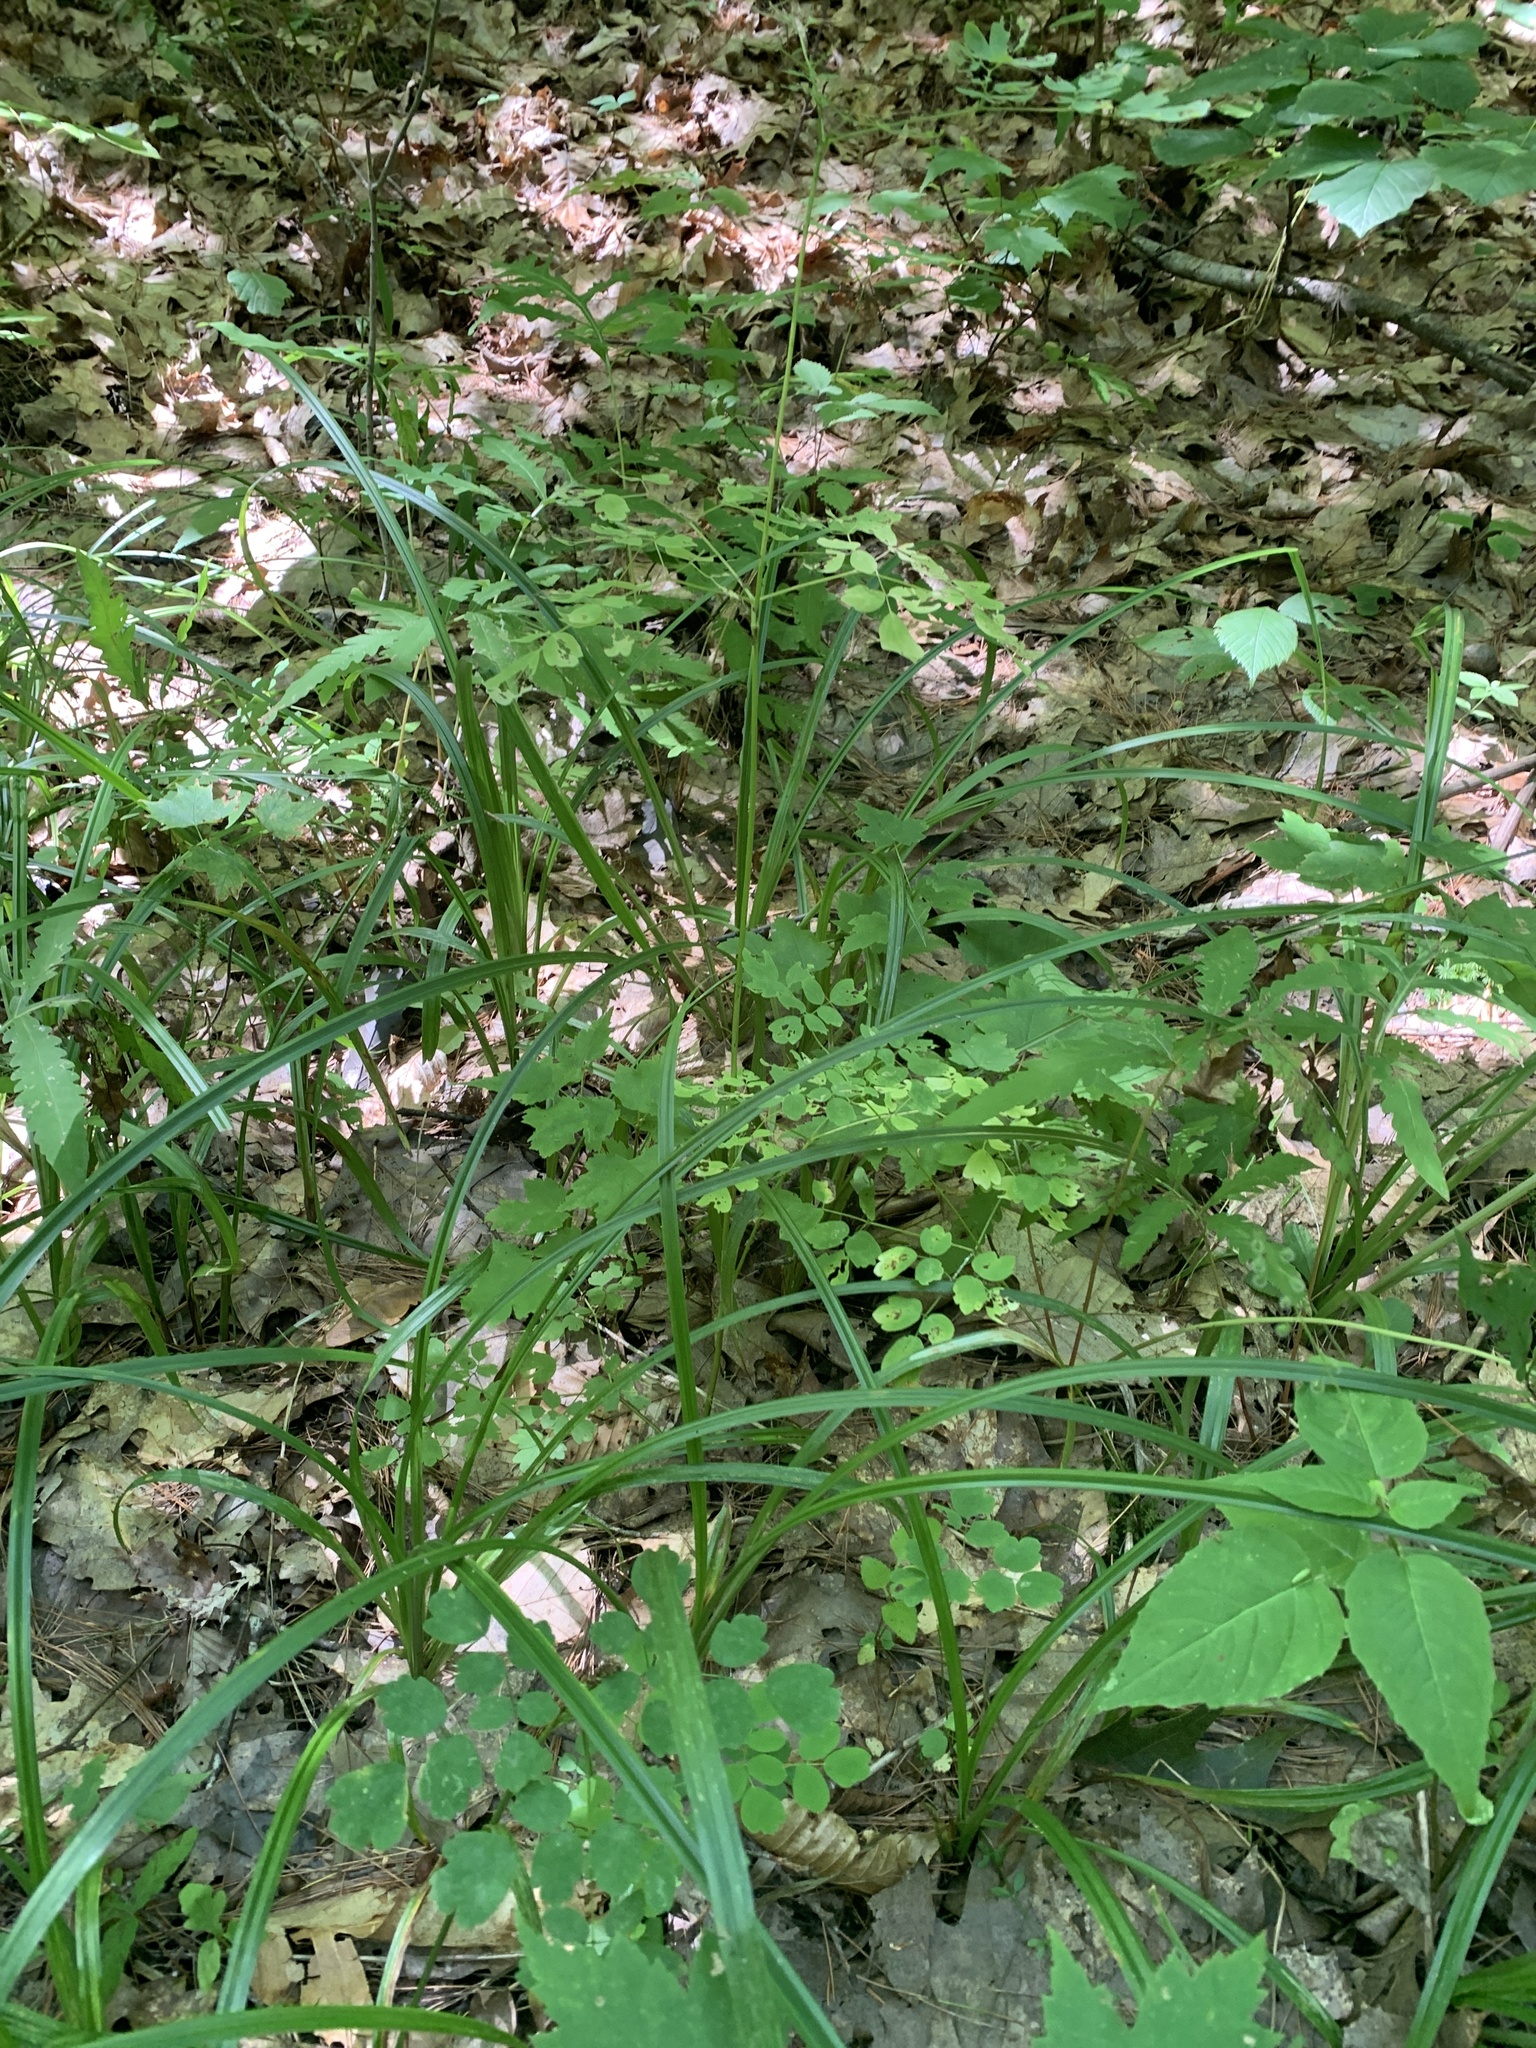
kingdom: Plantae
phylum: Tracheophyta
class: Magnoliopsida
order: Ranunculales
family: Ranunculaceae
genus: Thalictrum
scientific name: Thalictrum pubescens
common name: King-of-the-meadow
